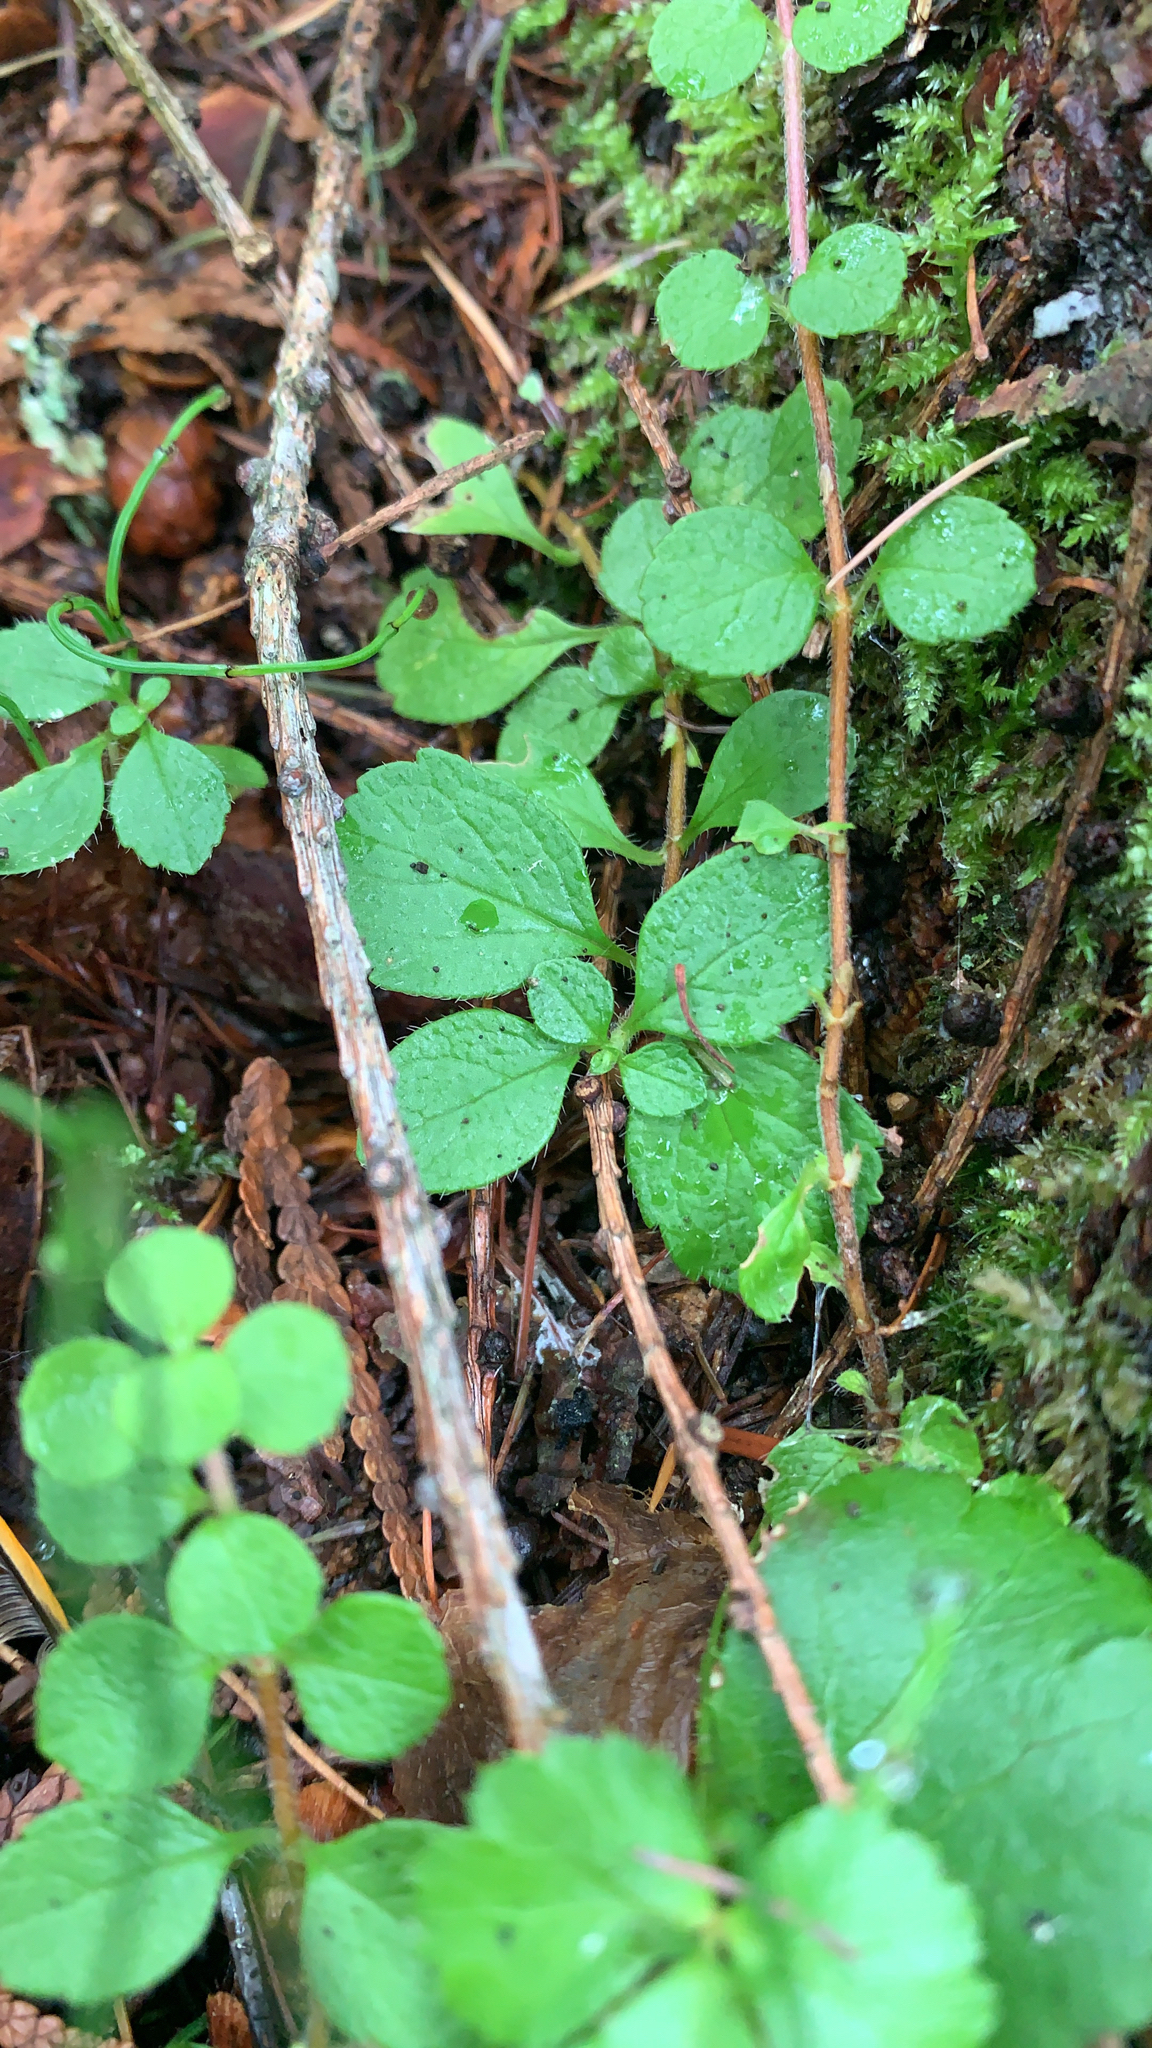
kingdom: Plantae
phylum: Tracheophyta
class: Magnoliopsida
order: Dipsacales
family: Caprifoliaceae
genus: Linnaea
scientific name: Linnaea borealis
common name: Twinflower
